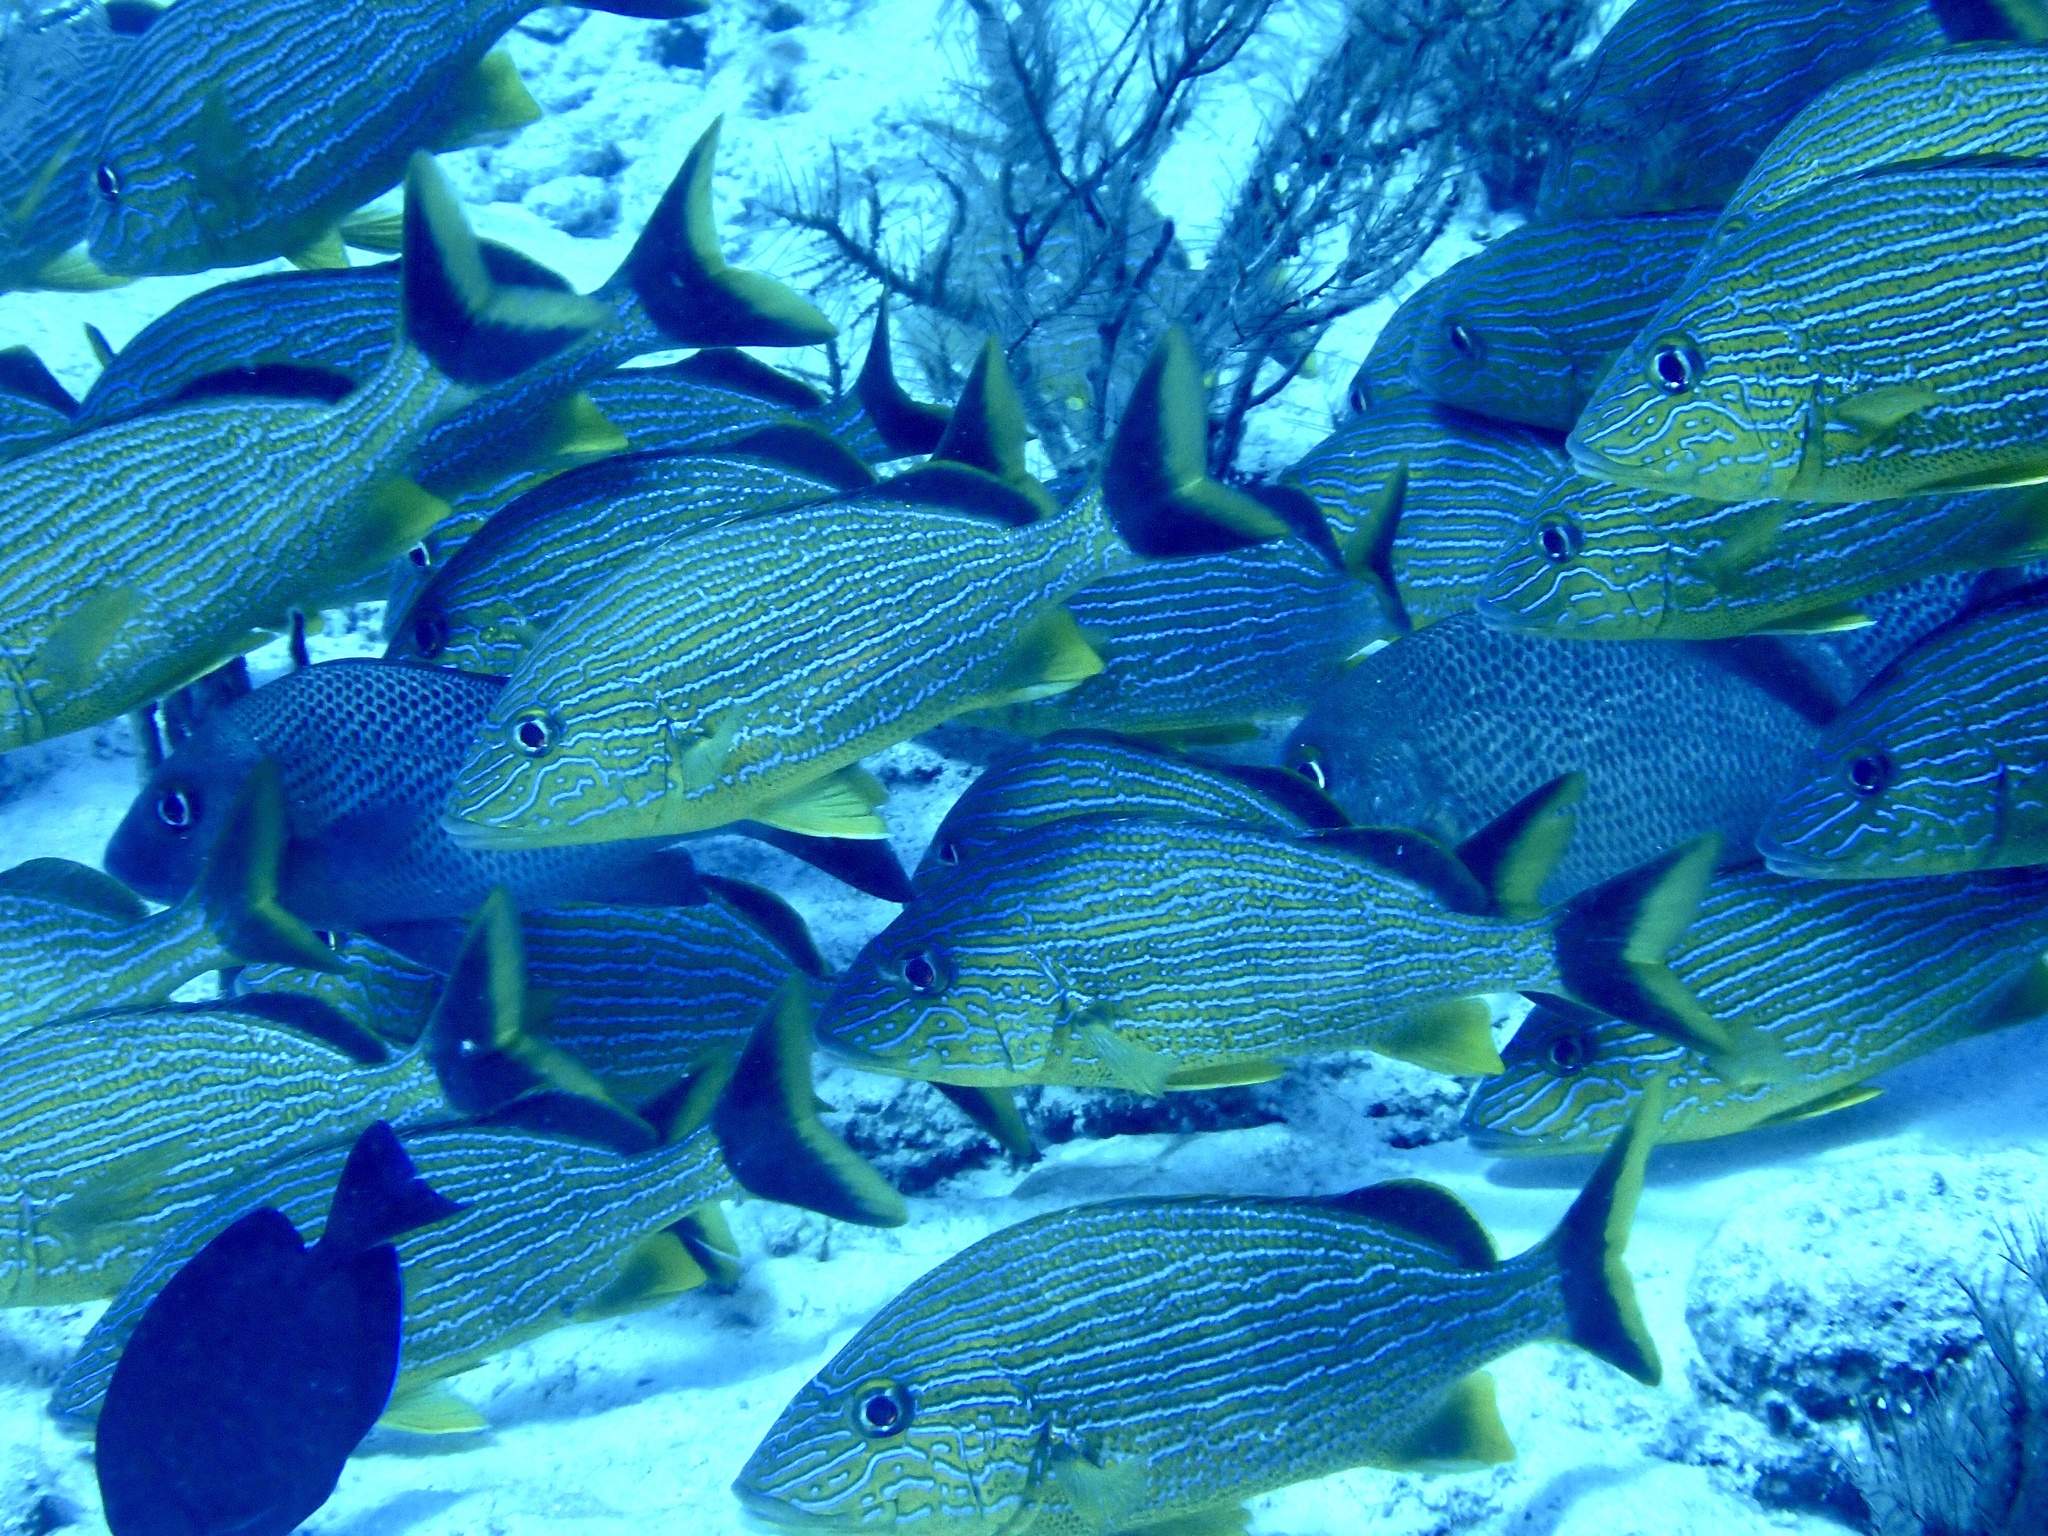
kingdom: Animalia
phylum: Chordata
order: Perciformes
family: Haemulidae
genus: Haemulon
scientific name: Haemulon sciurus
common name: Bluestriped grunt
